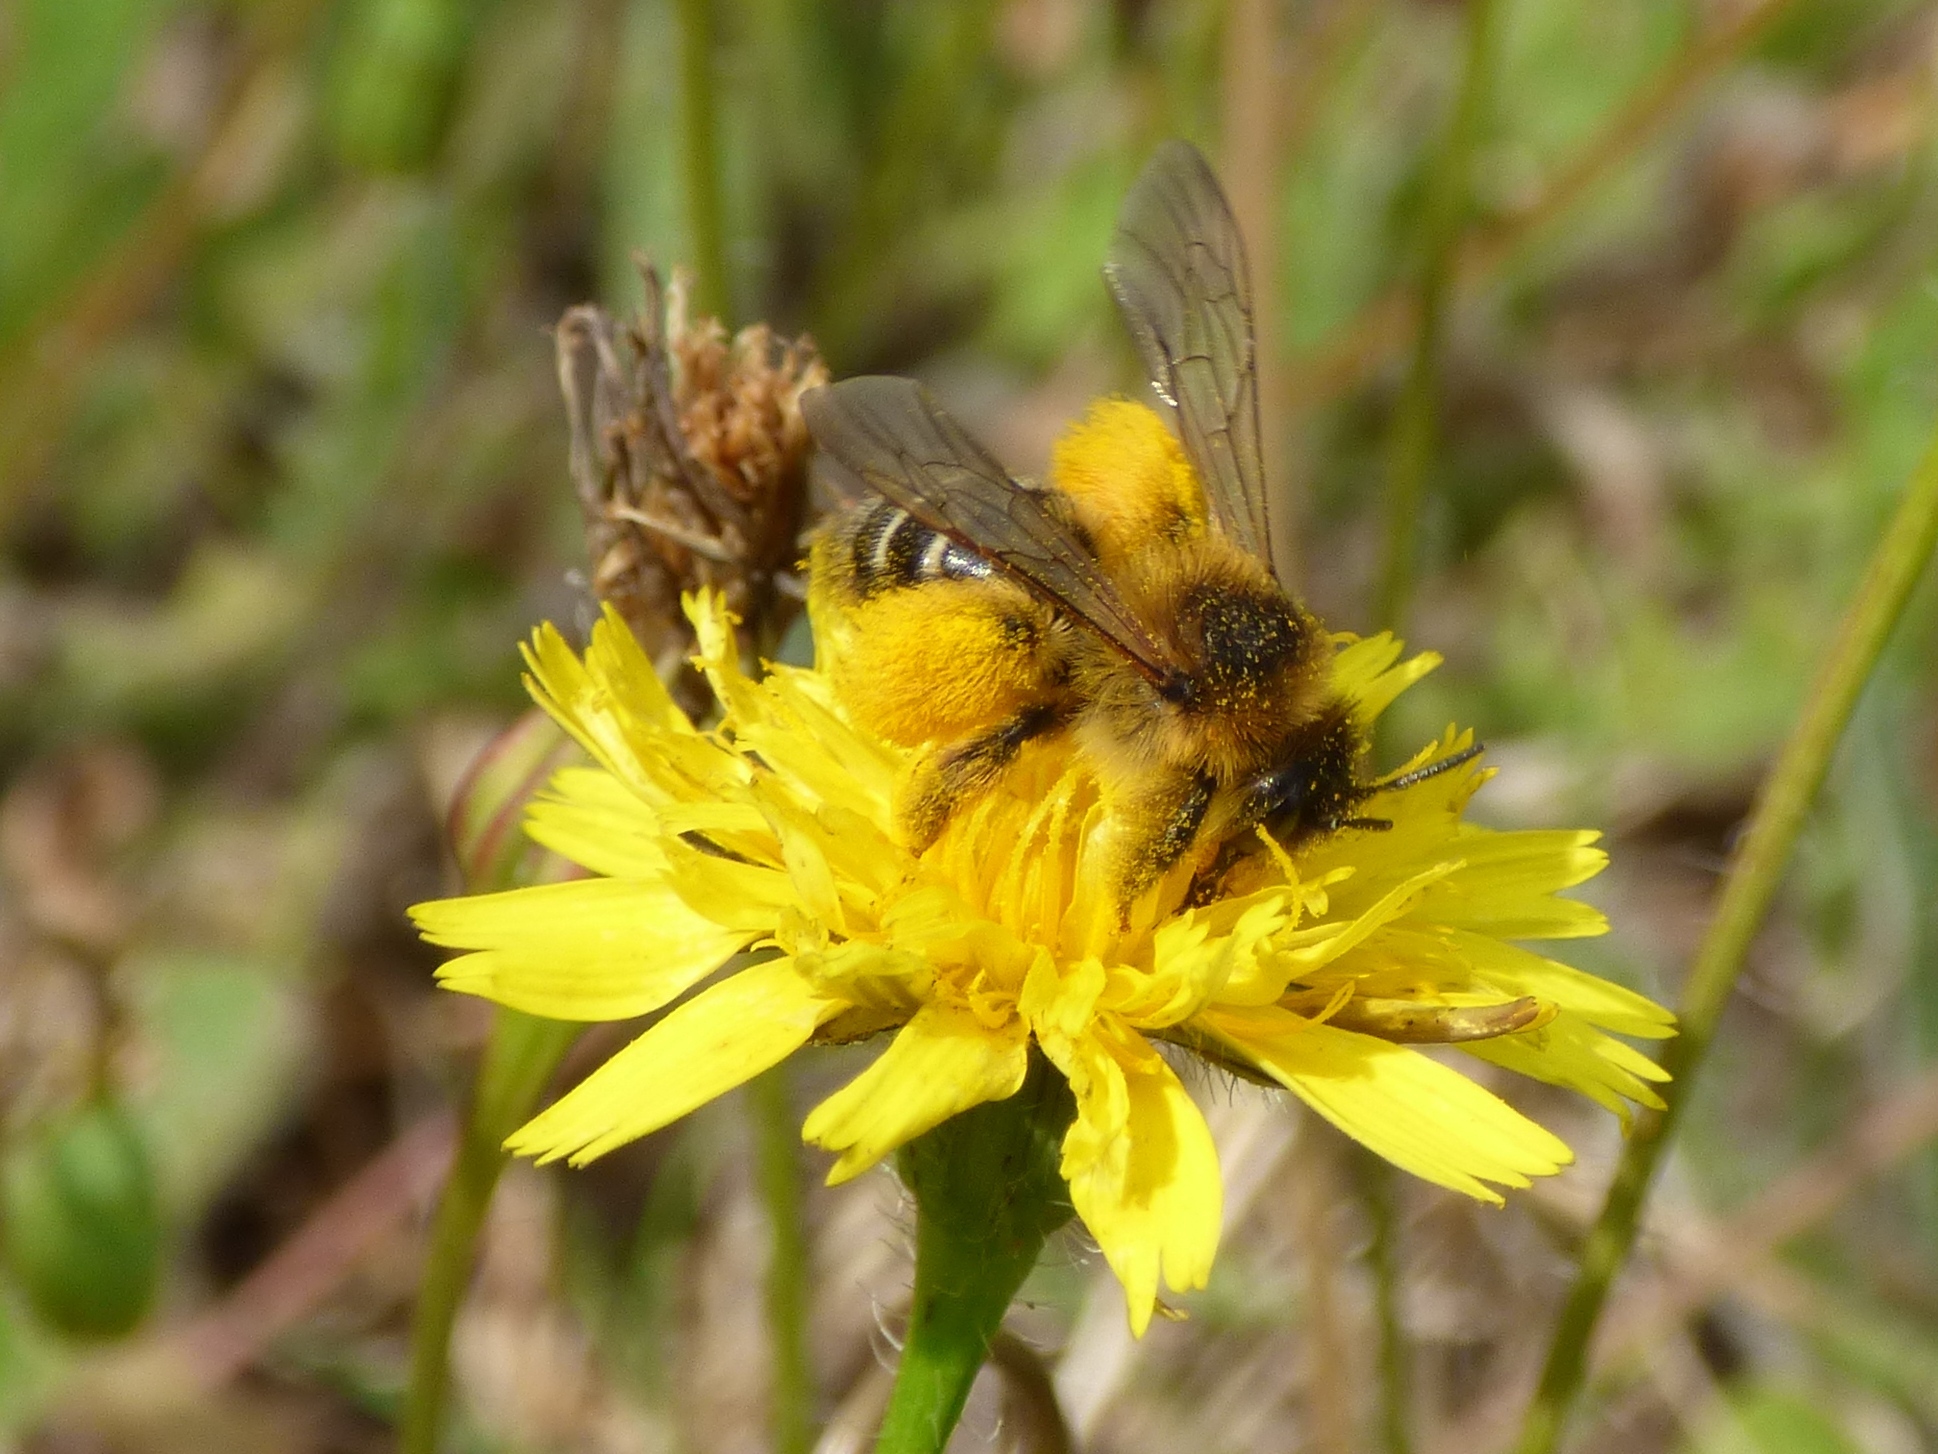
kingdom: Animalia
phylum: Arthropoda
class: Insecta
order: Hymenoptera
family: Melittidae
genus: Dasypoda
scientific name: Dasypoda hirtipes
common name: Pantaloon bee
